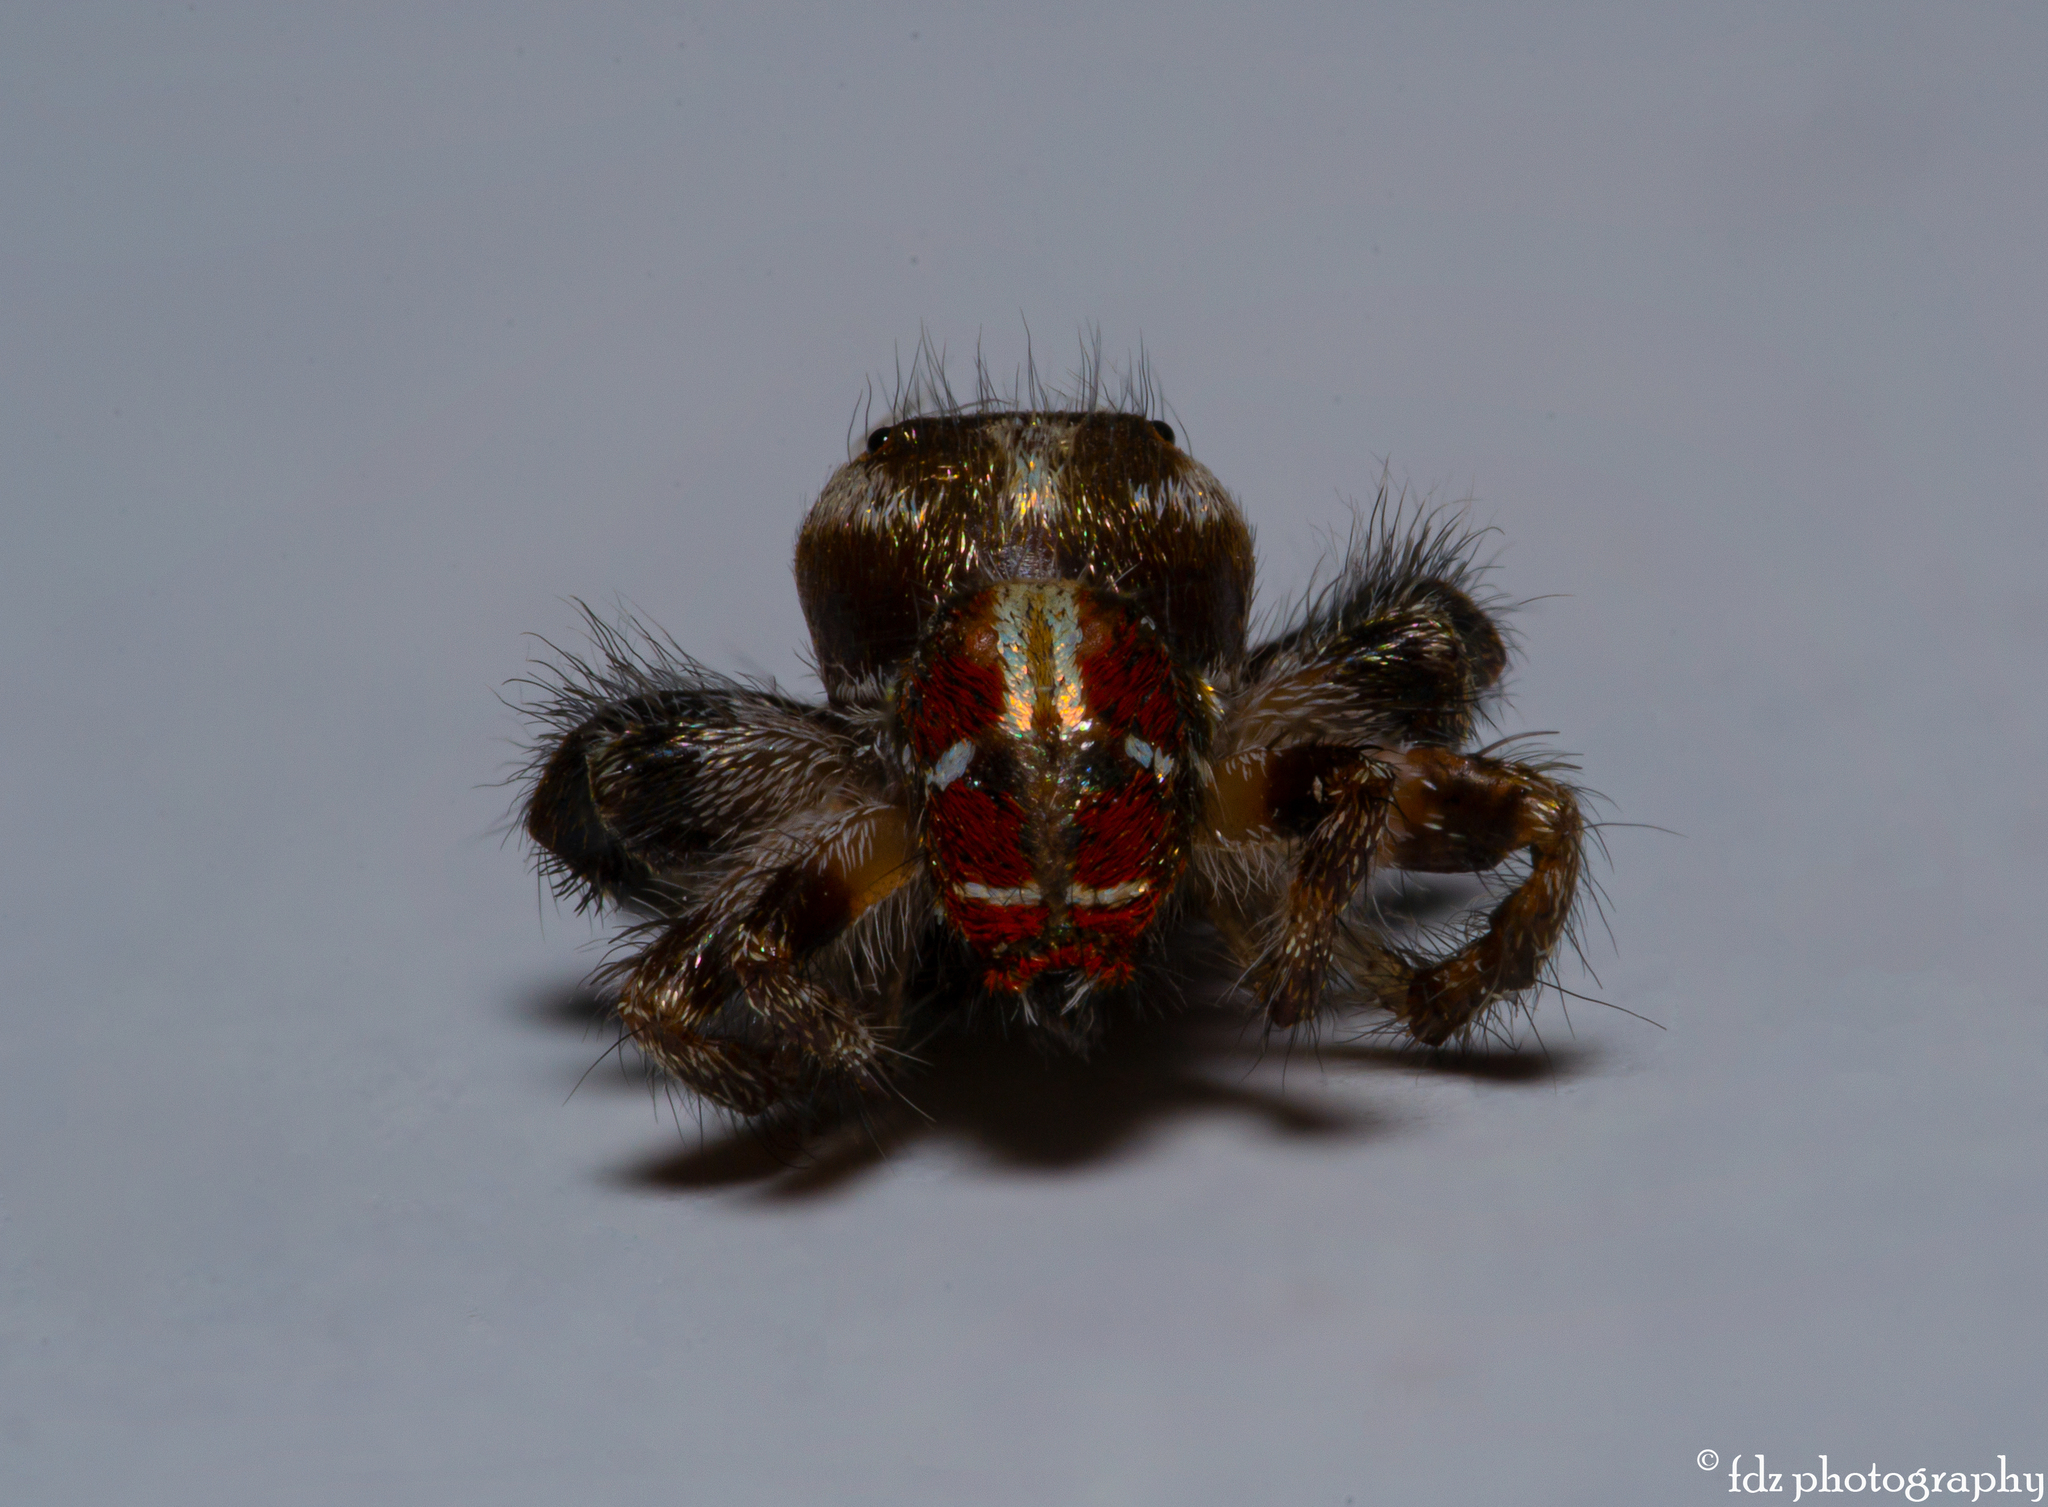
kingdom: Animalia
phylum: Arthropoda
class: Arachnida
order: Araneae
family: Salticidae
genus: Thyene
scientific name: Thyene imperialis
